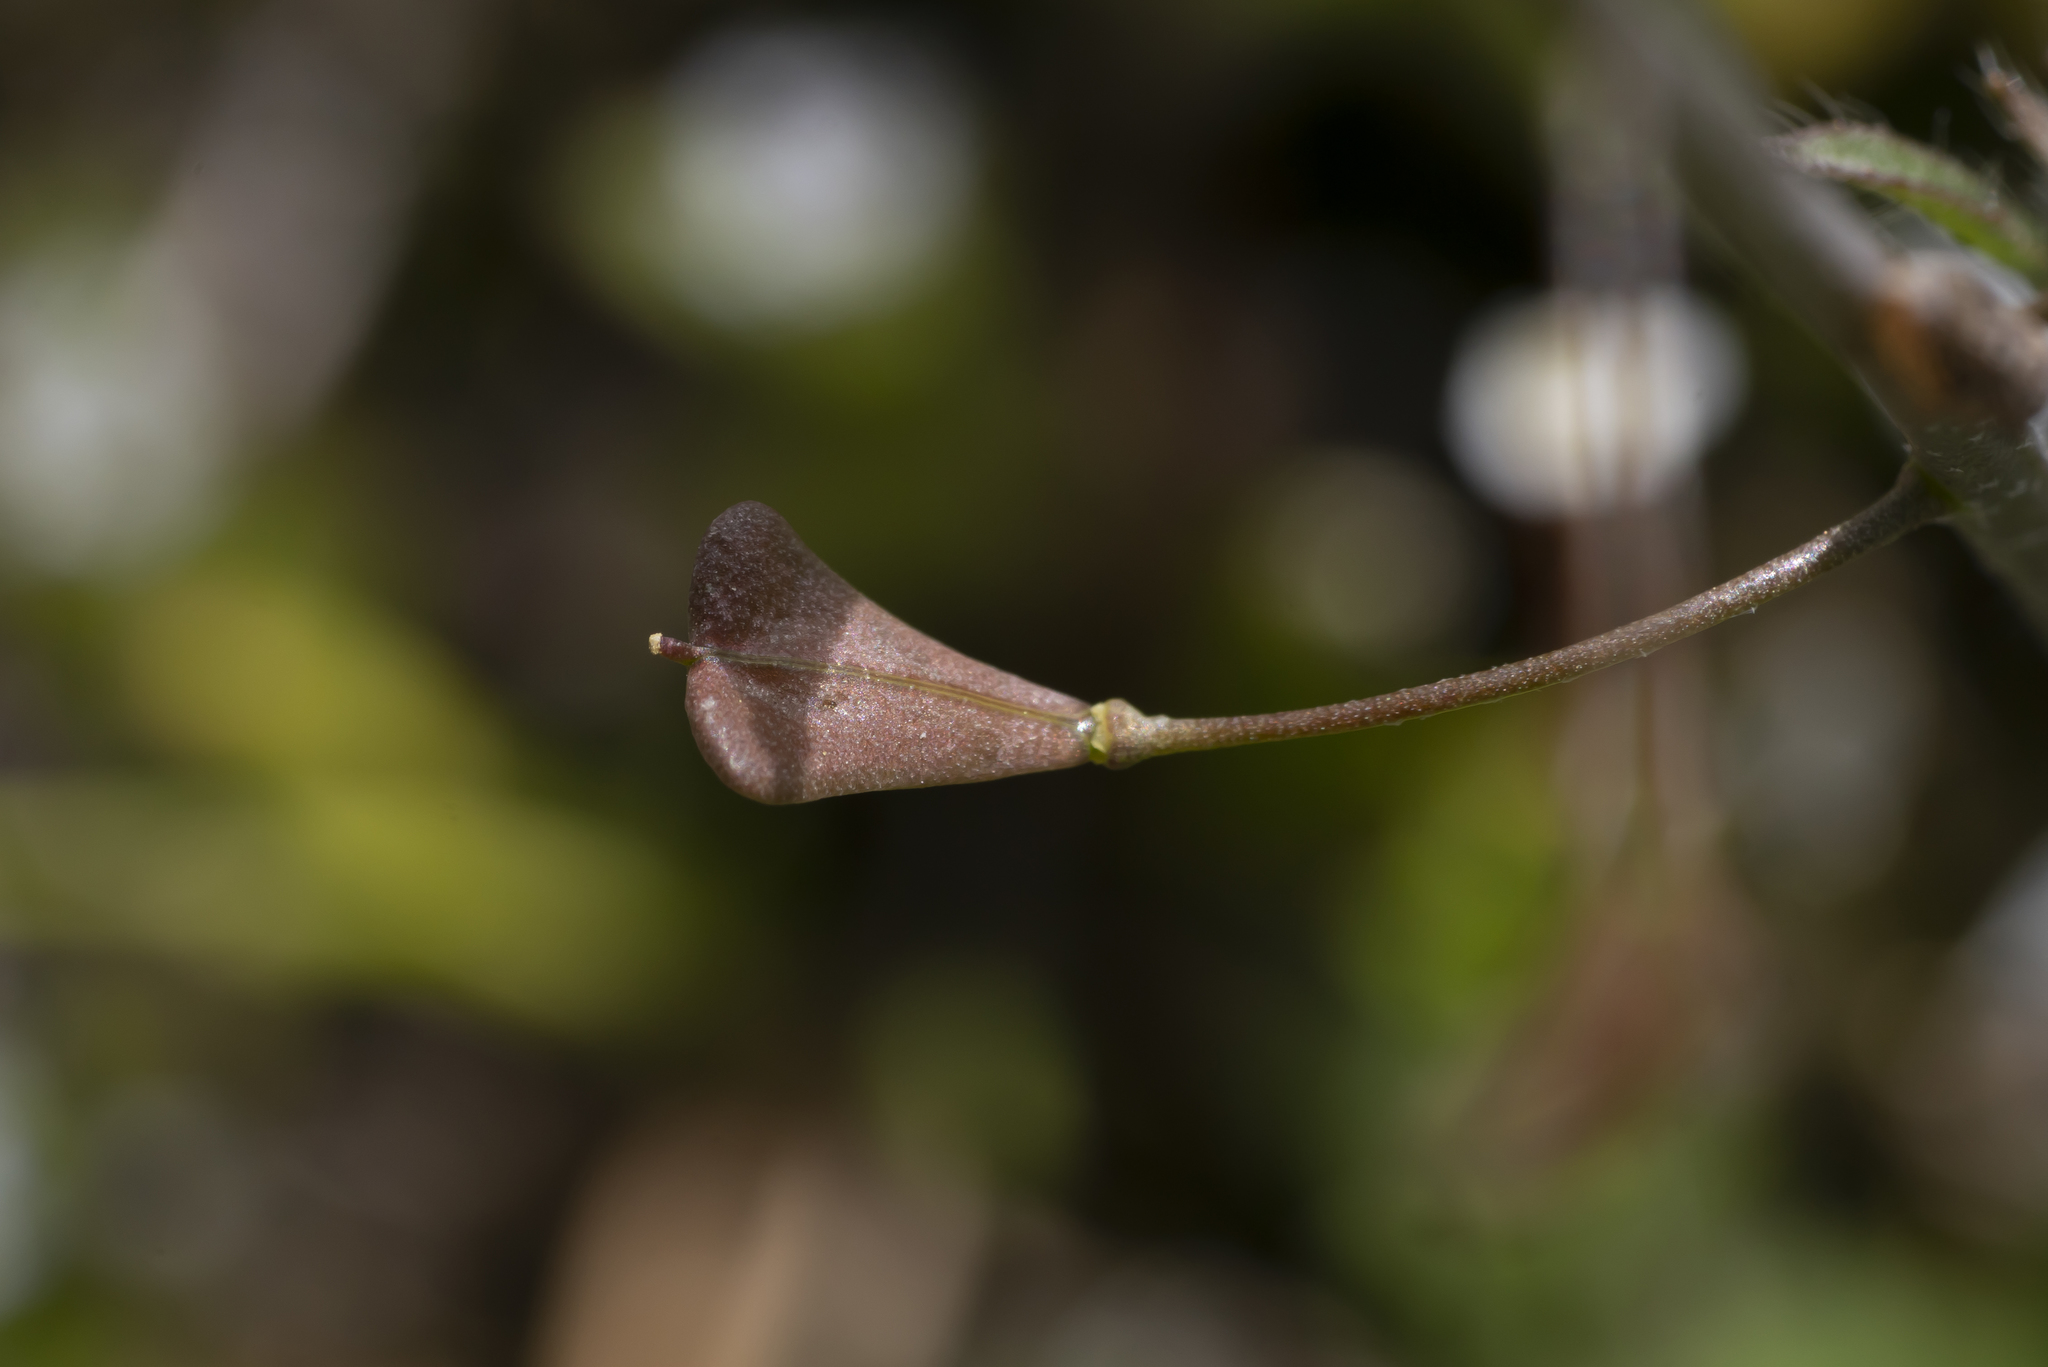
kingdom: Plantae
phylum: Tracheophyta
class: Magnoliopsida
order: Brassicales
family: Brassicaceae
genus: Capsella
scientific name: Capsella bursa-pastoris
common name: Shepherd's purse
